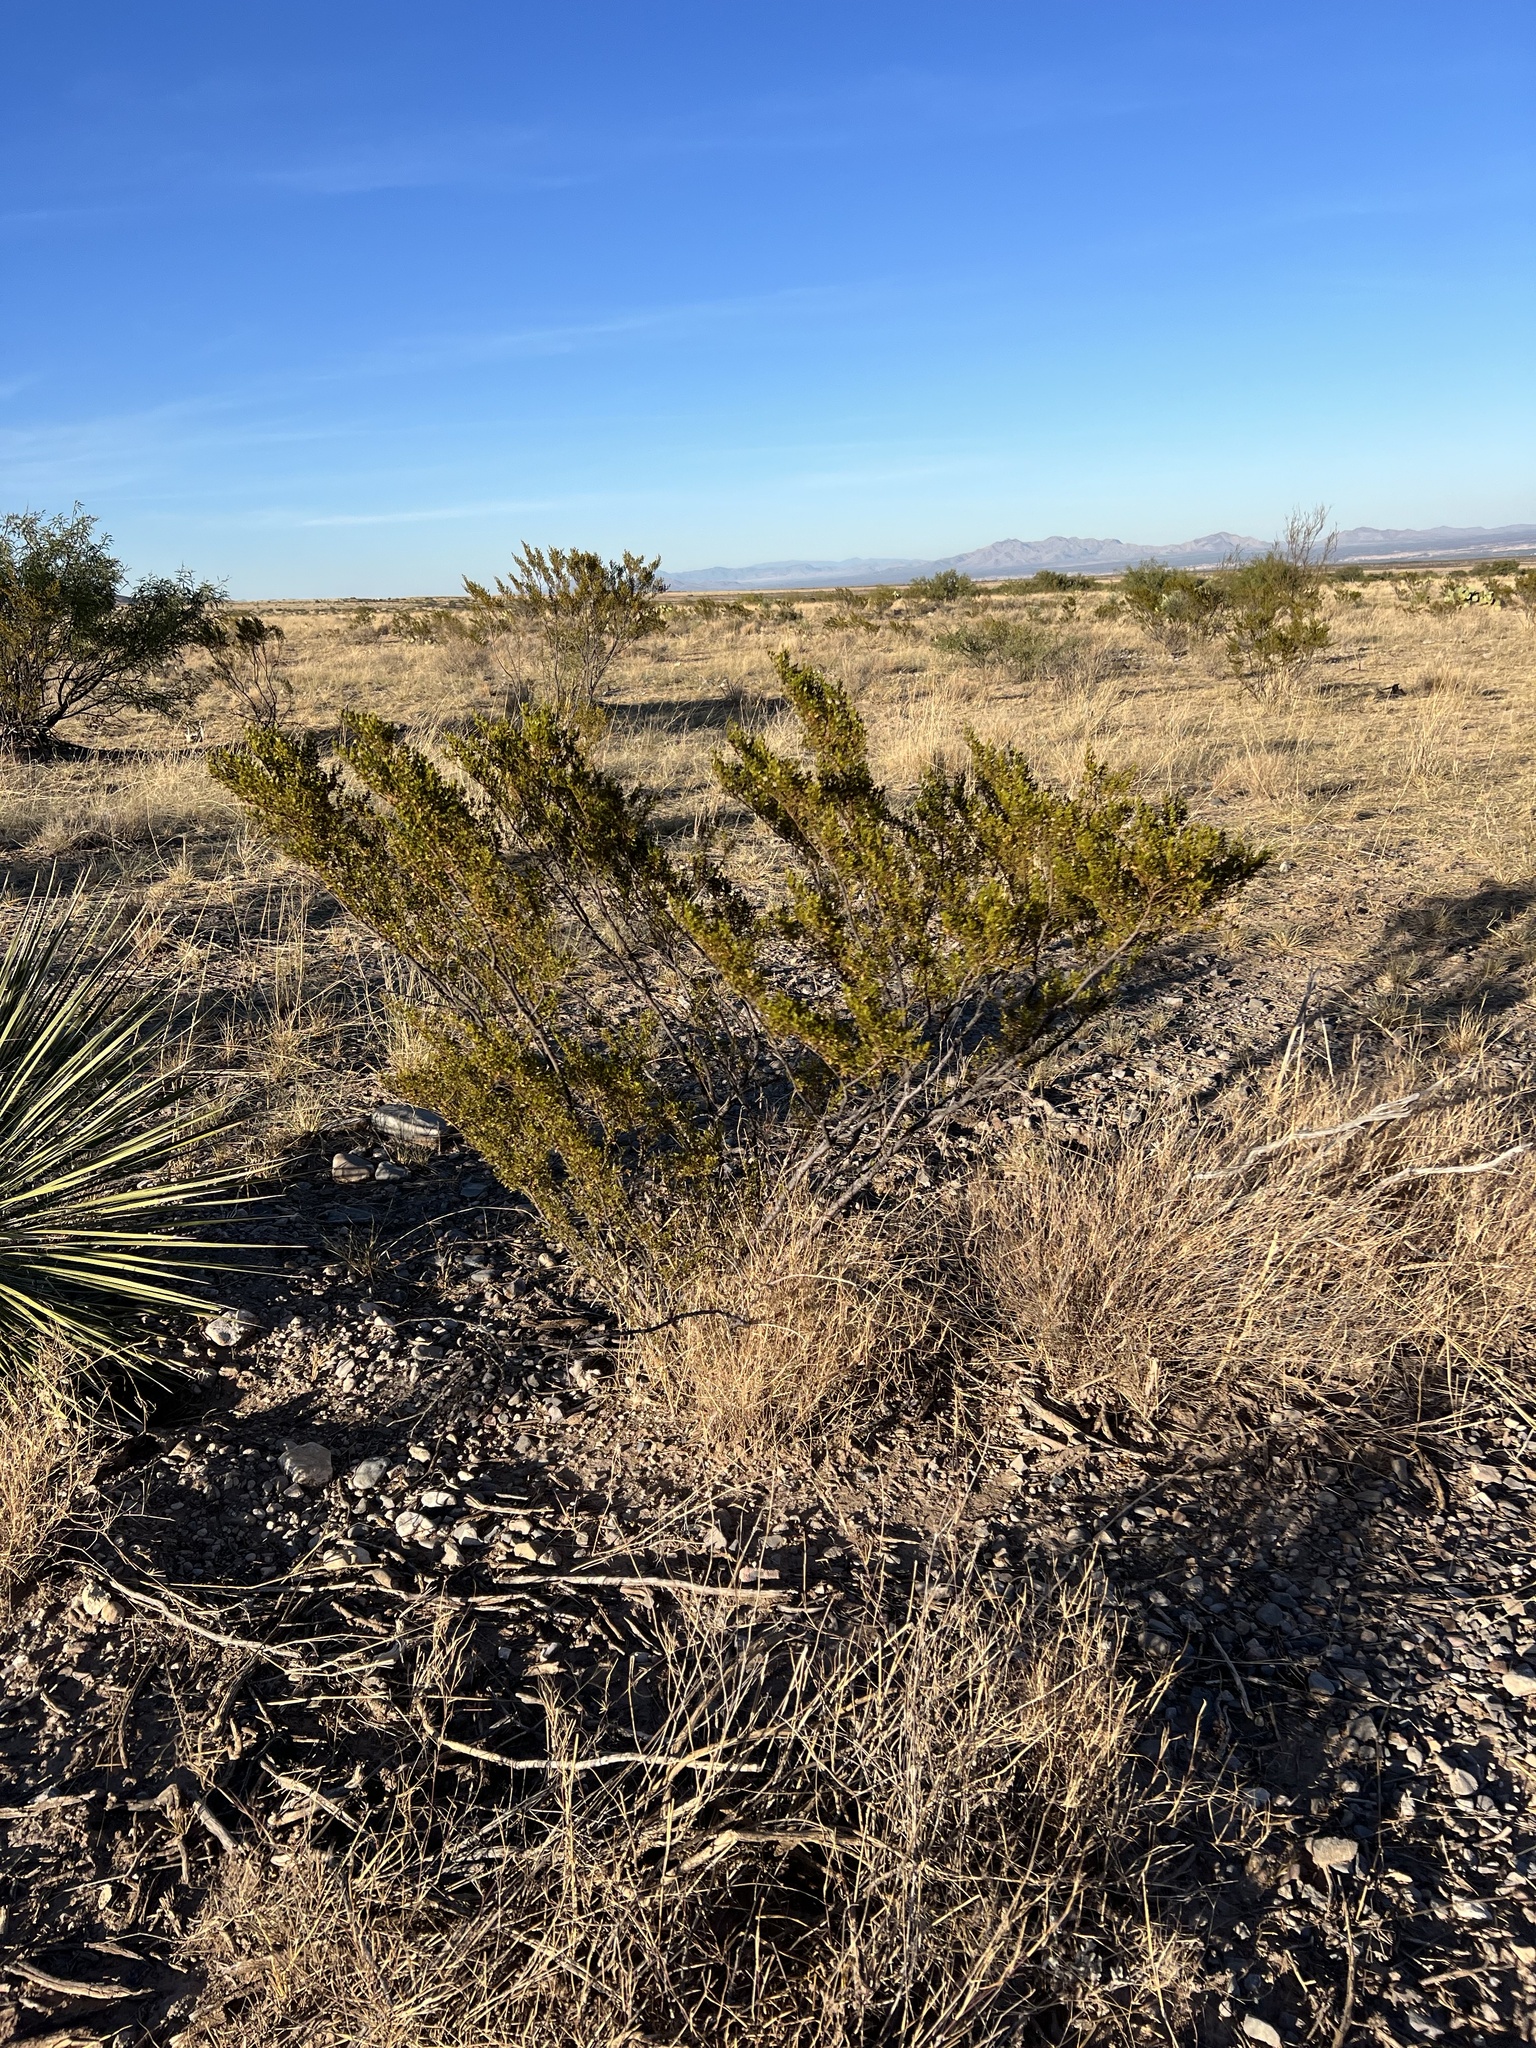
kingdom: Plantae
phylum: Tracheophyta
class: Magnoliopsida
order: Zygophyllales
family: Zygophyllaceae
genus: Larrea
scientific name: Larrea tridentata
